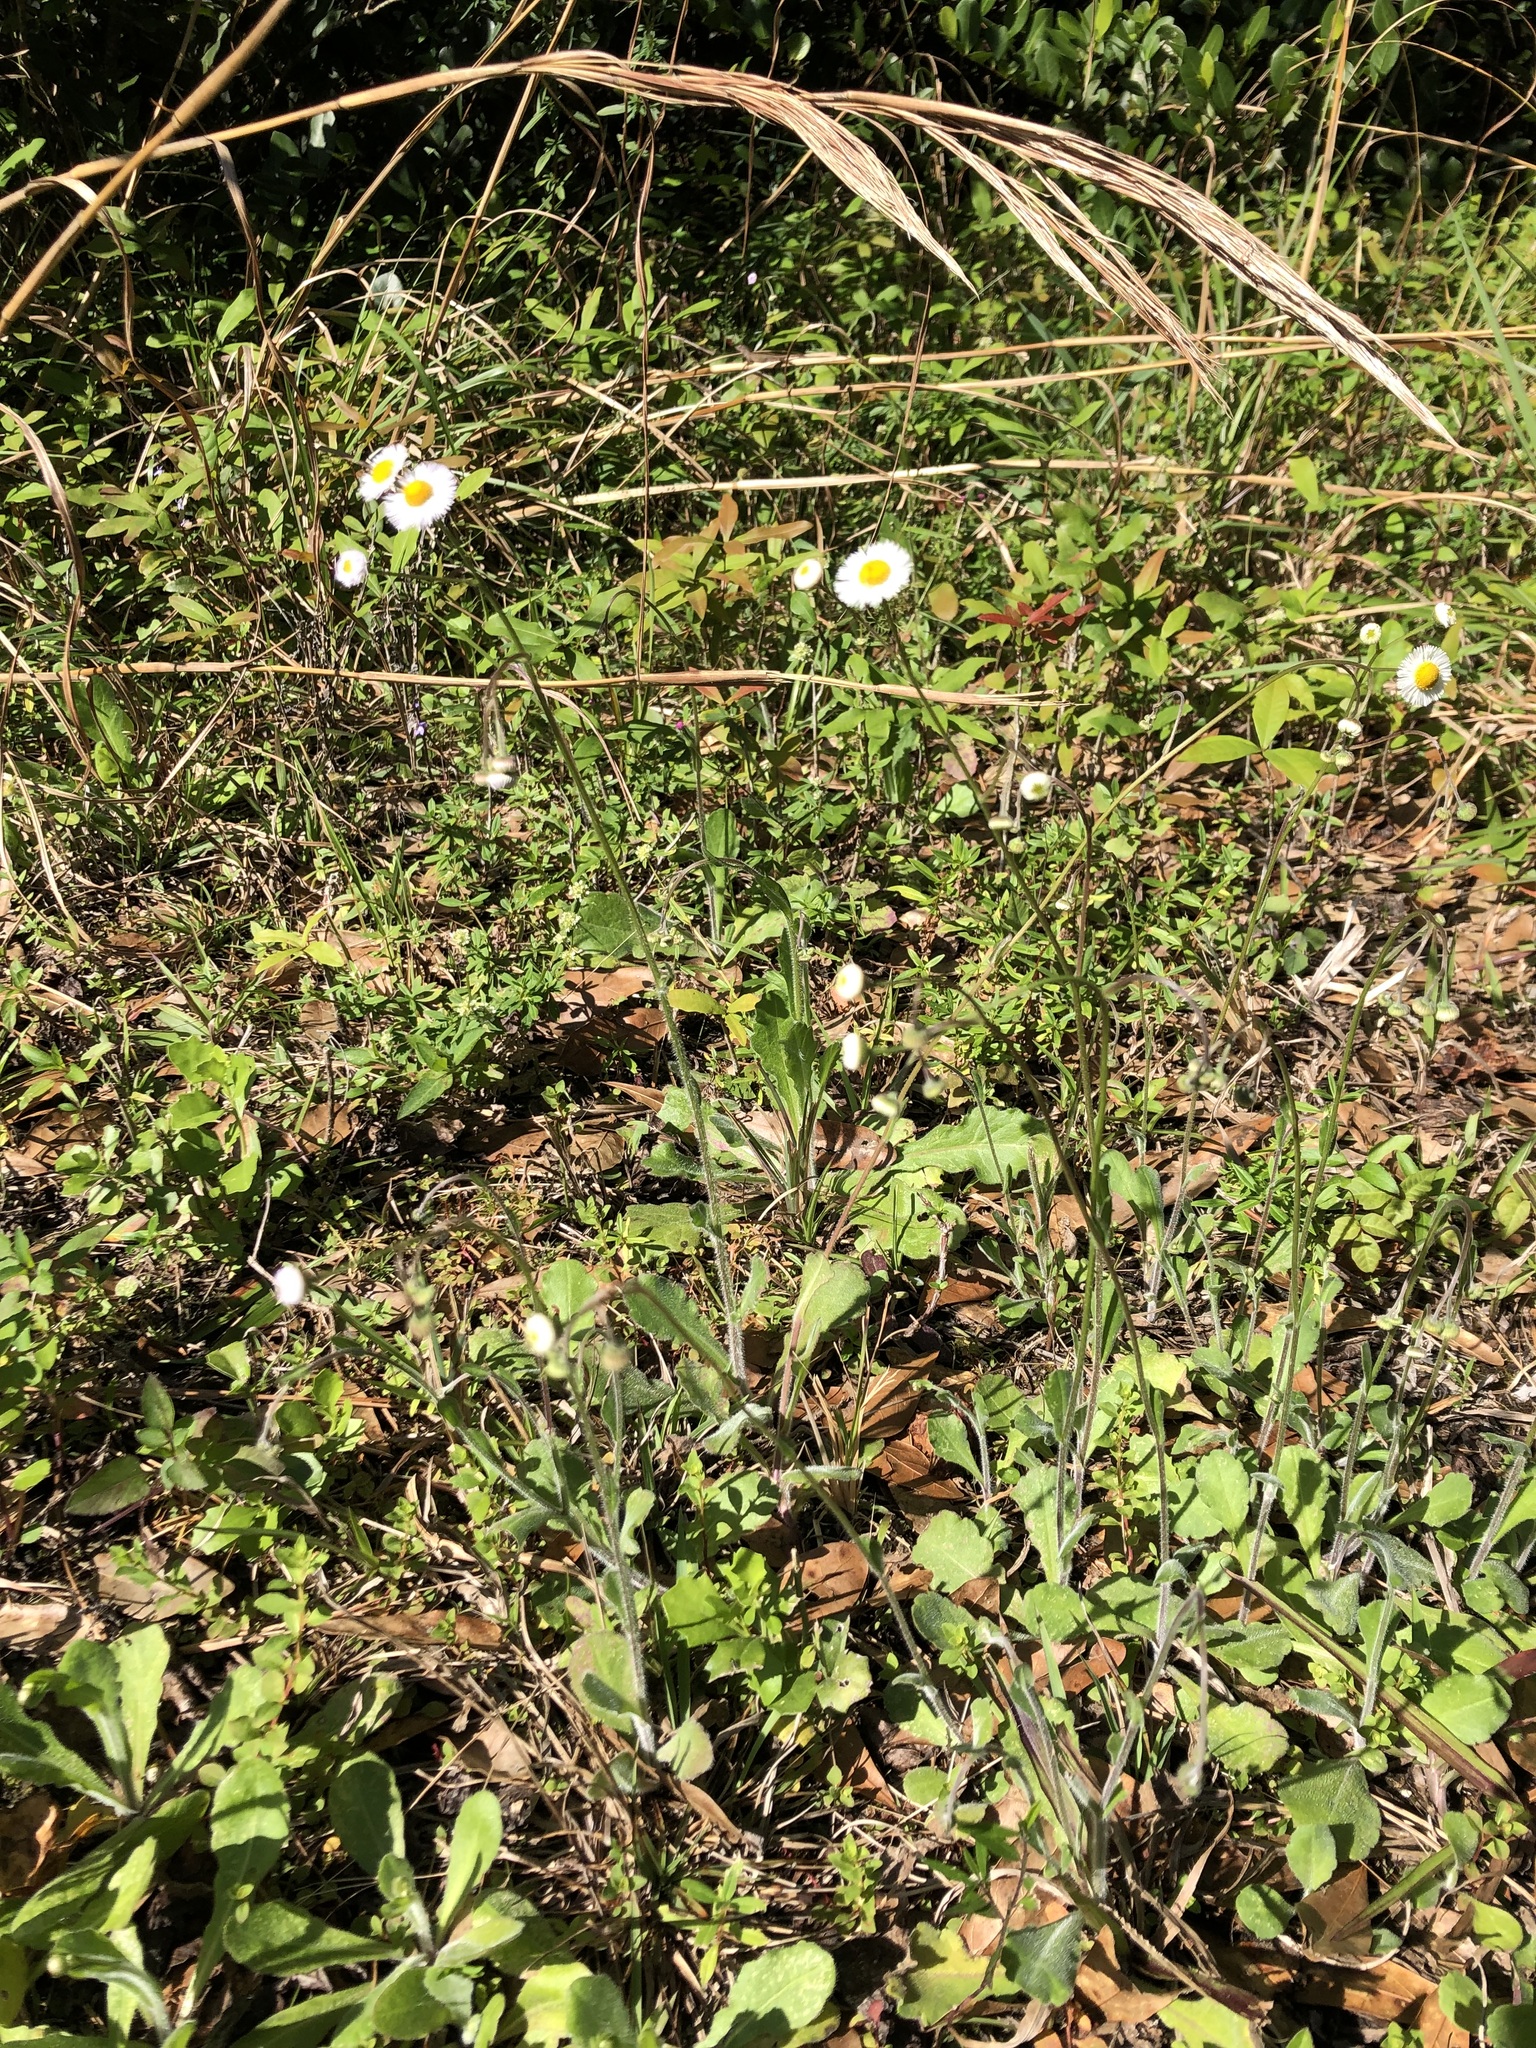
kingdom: Plantae
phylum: Tracheophyta
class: Magnoliopsida
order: Asterales
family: Asteraceae
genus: Erigeron
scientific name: Erigeron quercifolius
